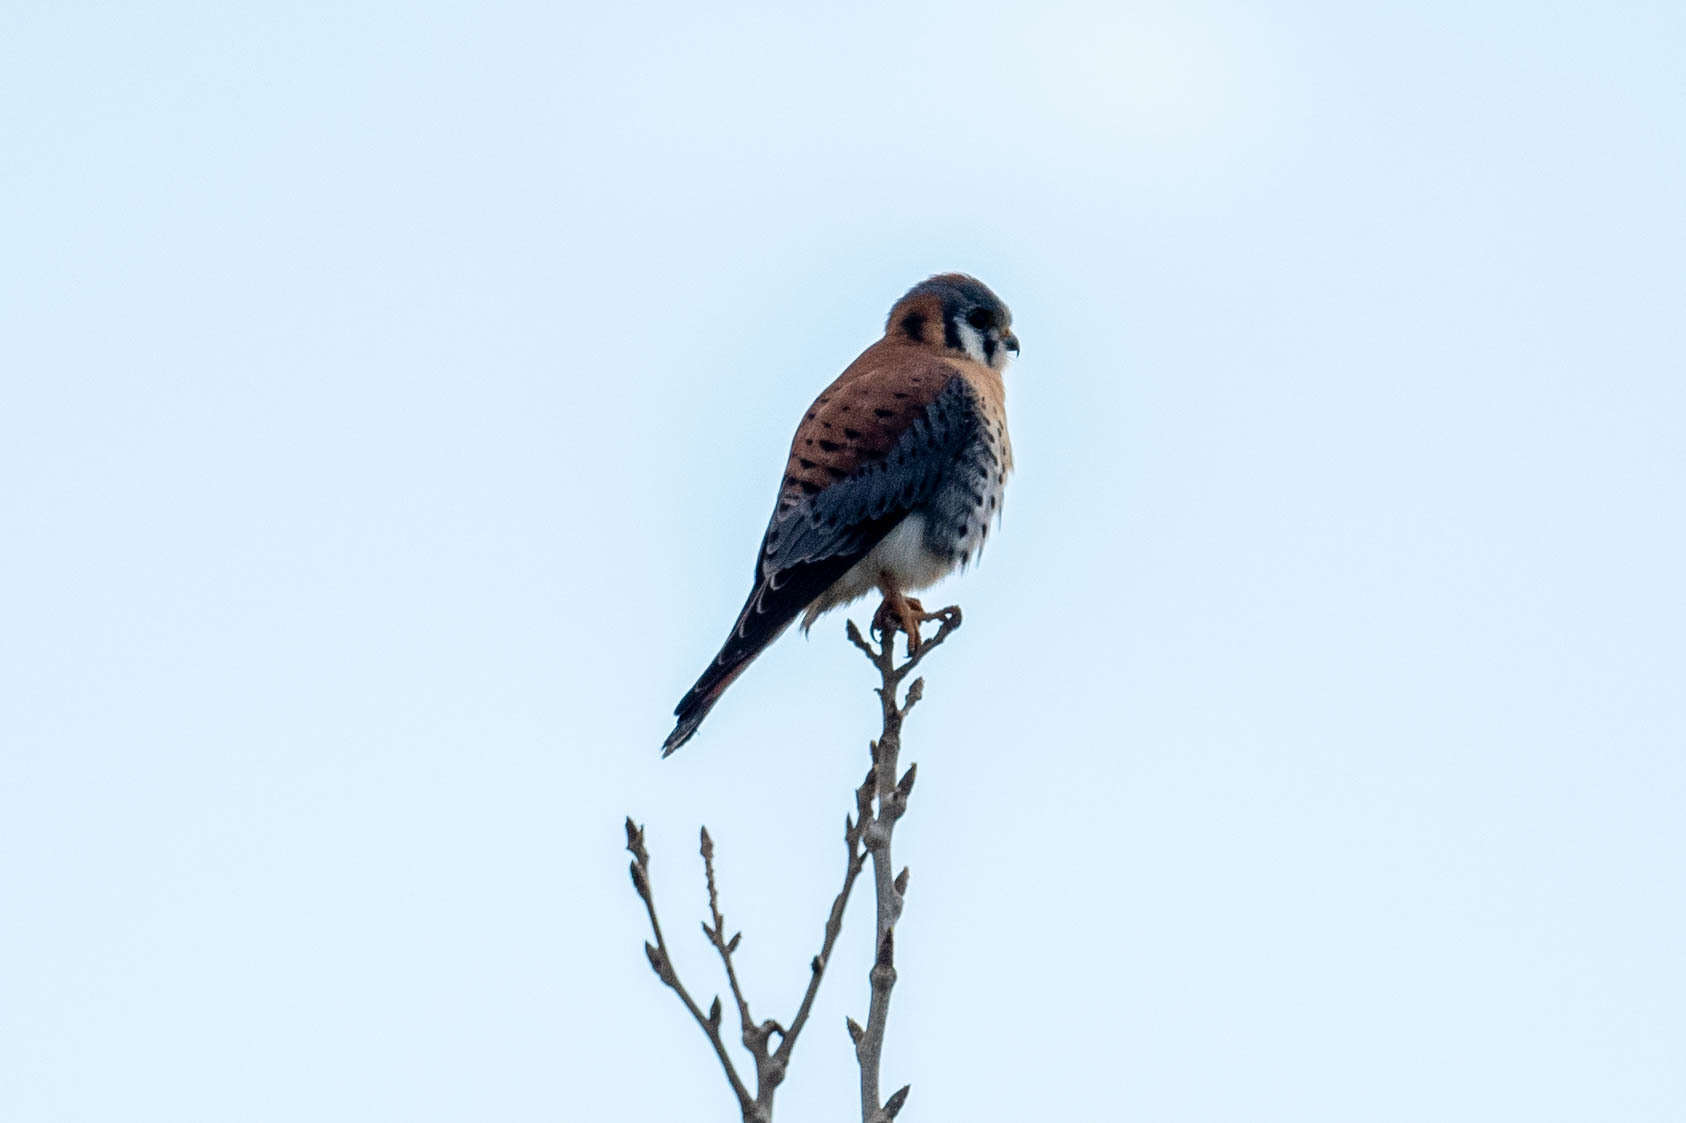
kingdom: Animalia
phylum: Chordata
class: Aves
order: Falconiformes
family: Falconidae
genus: Falco
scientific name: Falco sparverius
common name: American kestrel
